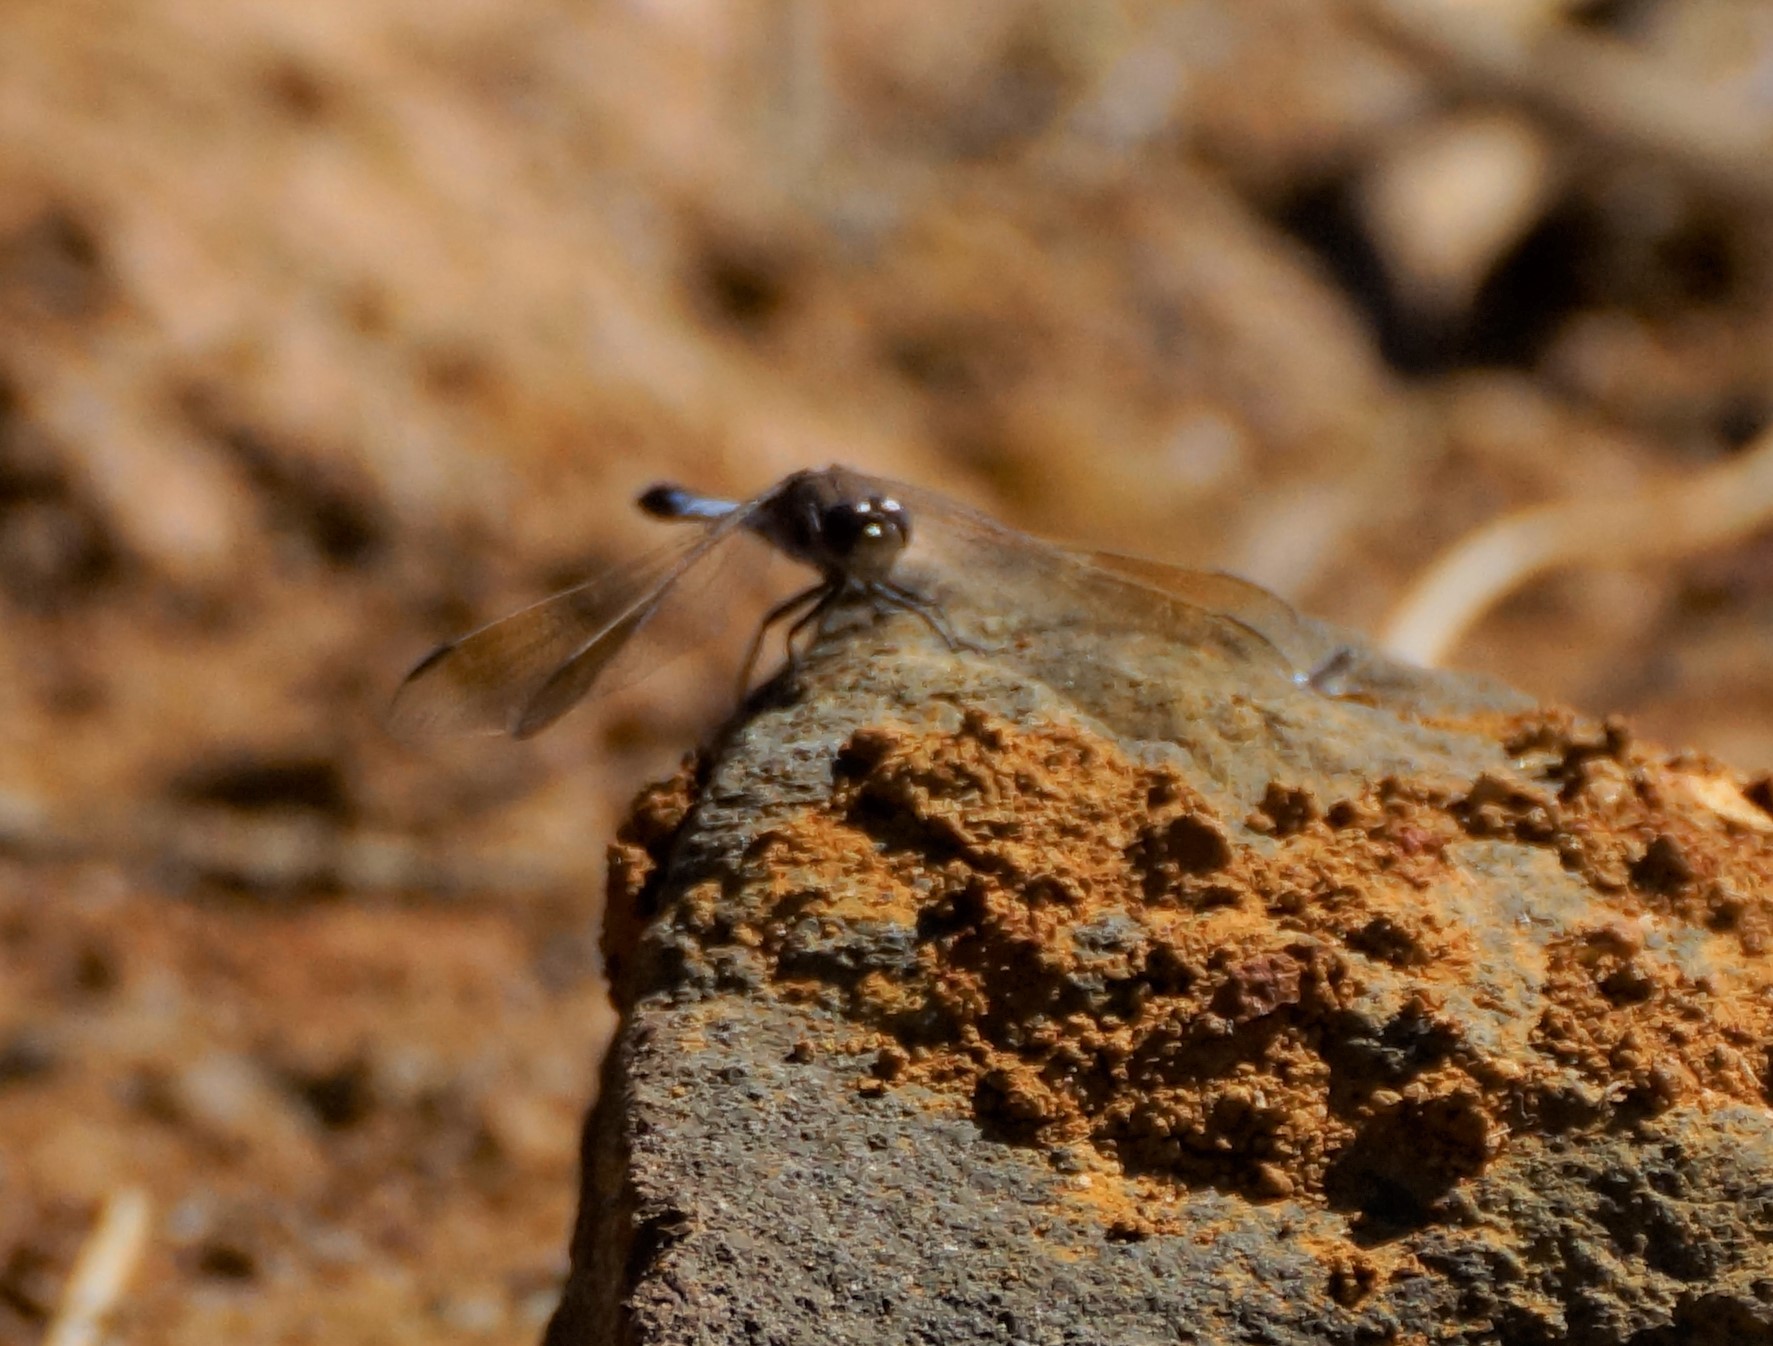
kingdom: Animalia
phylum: Arthropoda
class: Insecta
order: Odonata
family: Libellulidae
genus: Orthetrum
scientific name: Orthetrum caledonicum
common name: Blue skimmer
